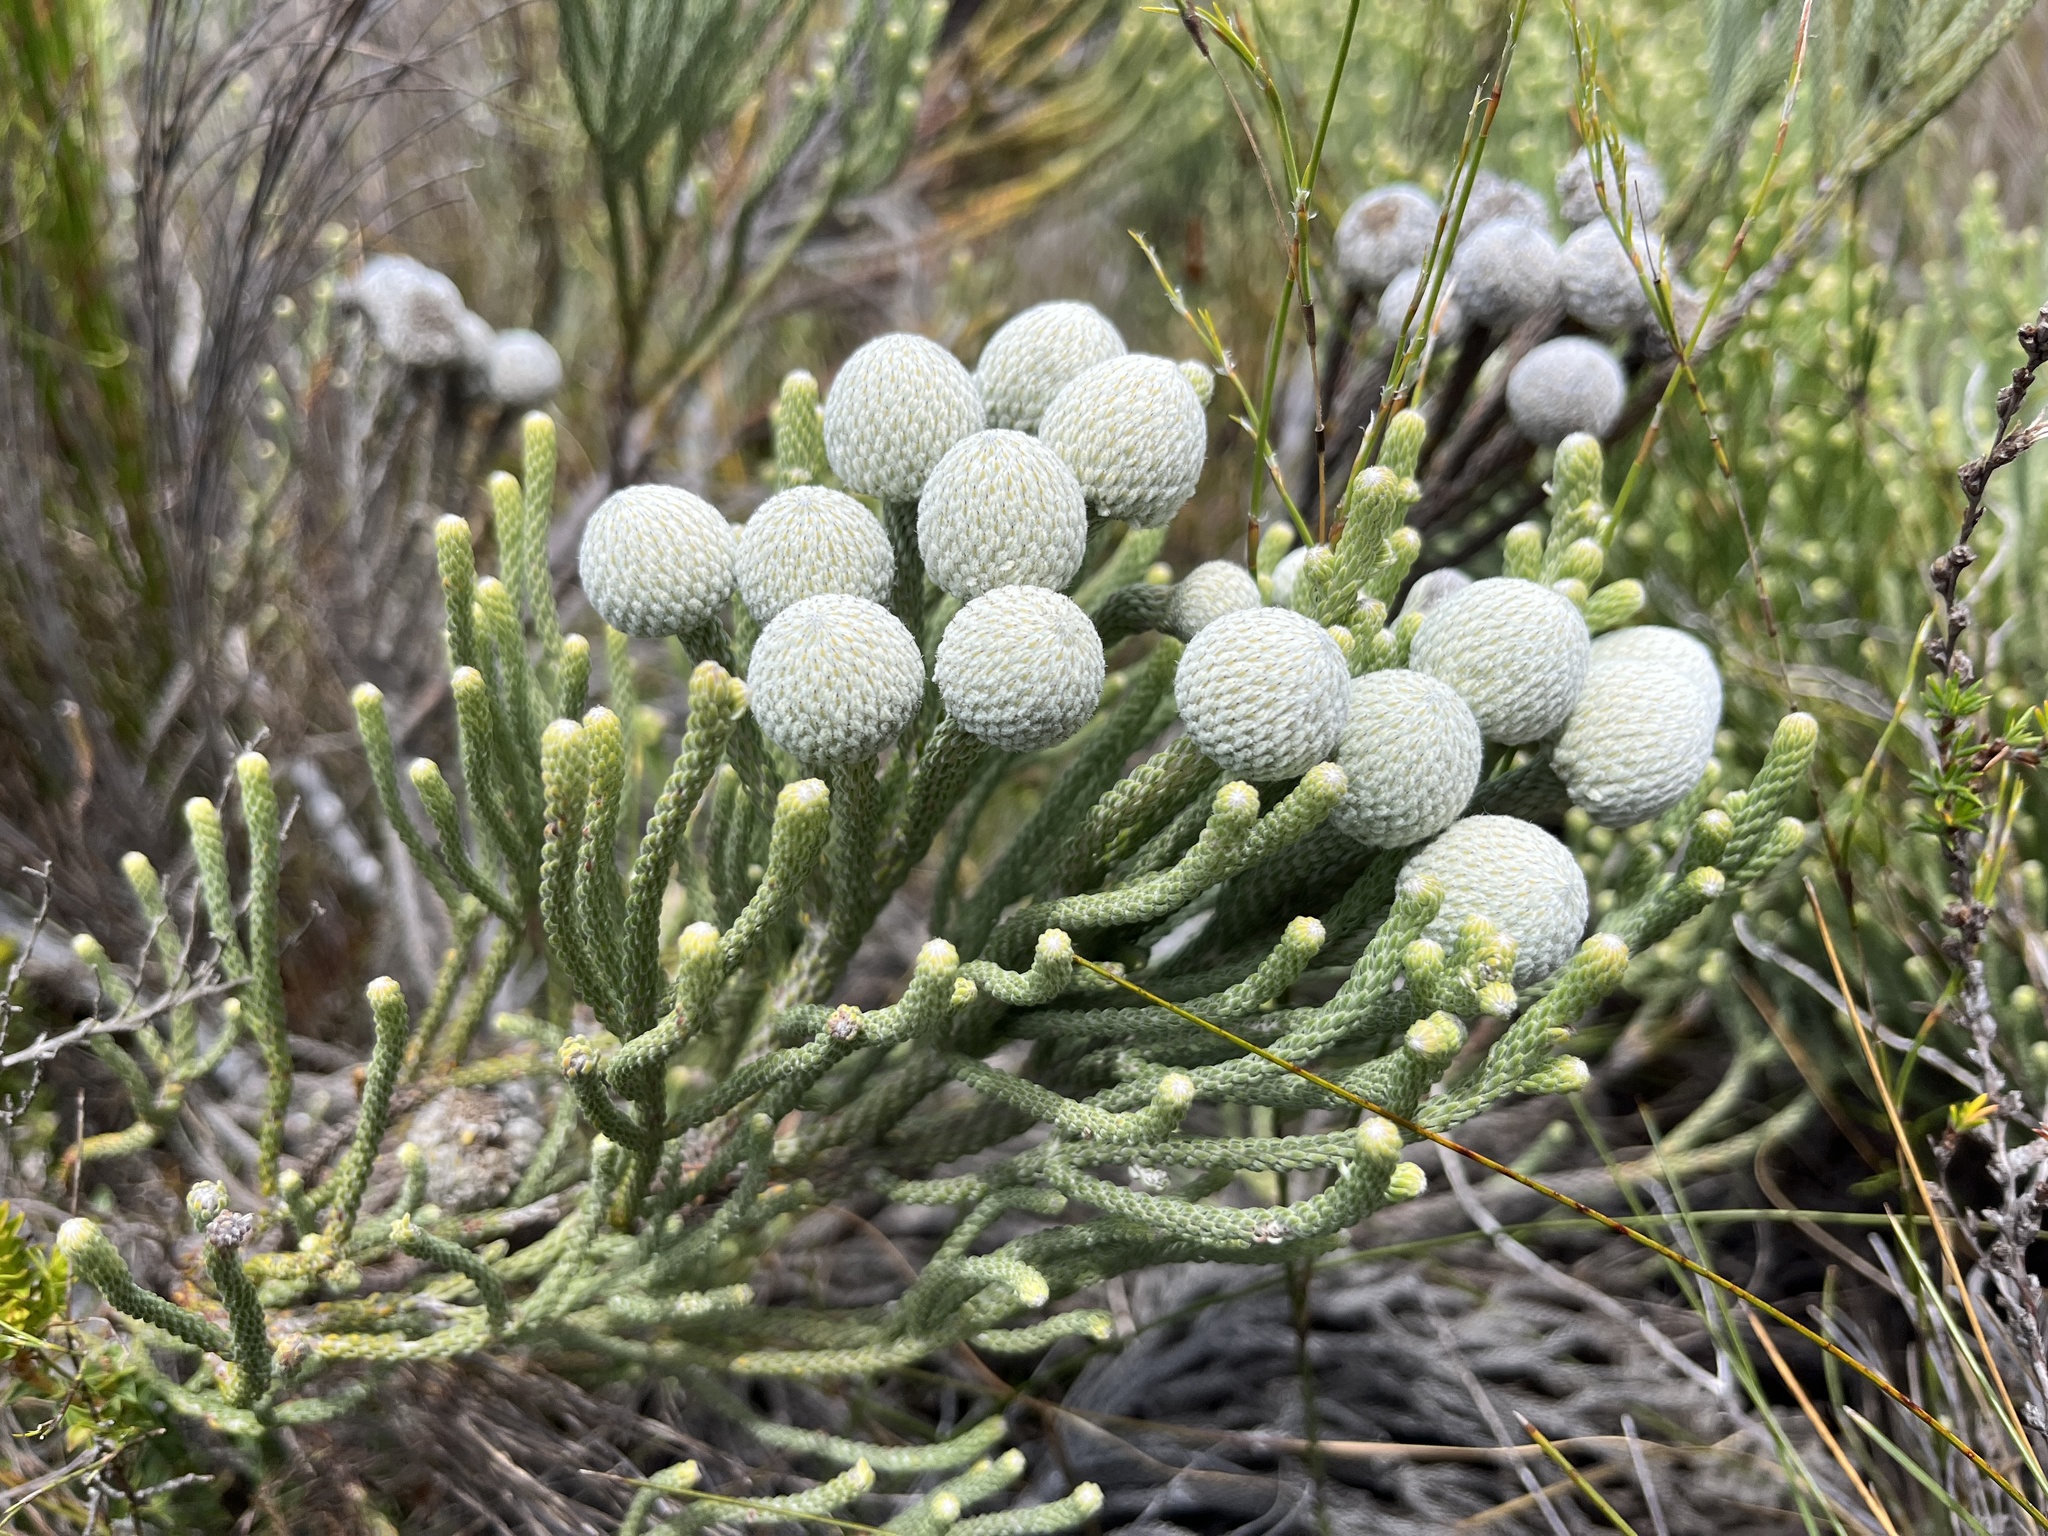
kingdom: Plantae
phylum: Tracheophyta
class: Magnoliopsida
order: Bruniales
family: Bruniaceae
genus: Brunia
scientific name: Brunia laevis
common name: Silver brunia
